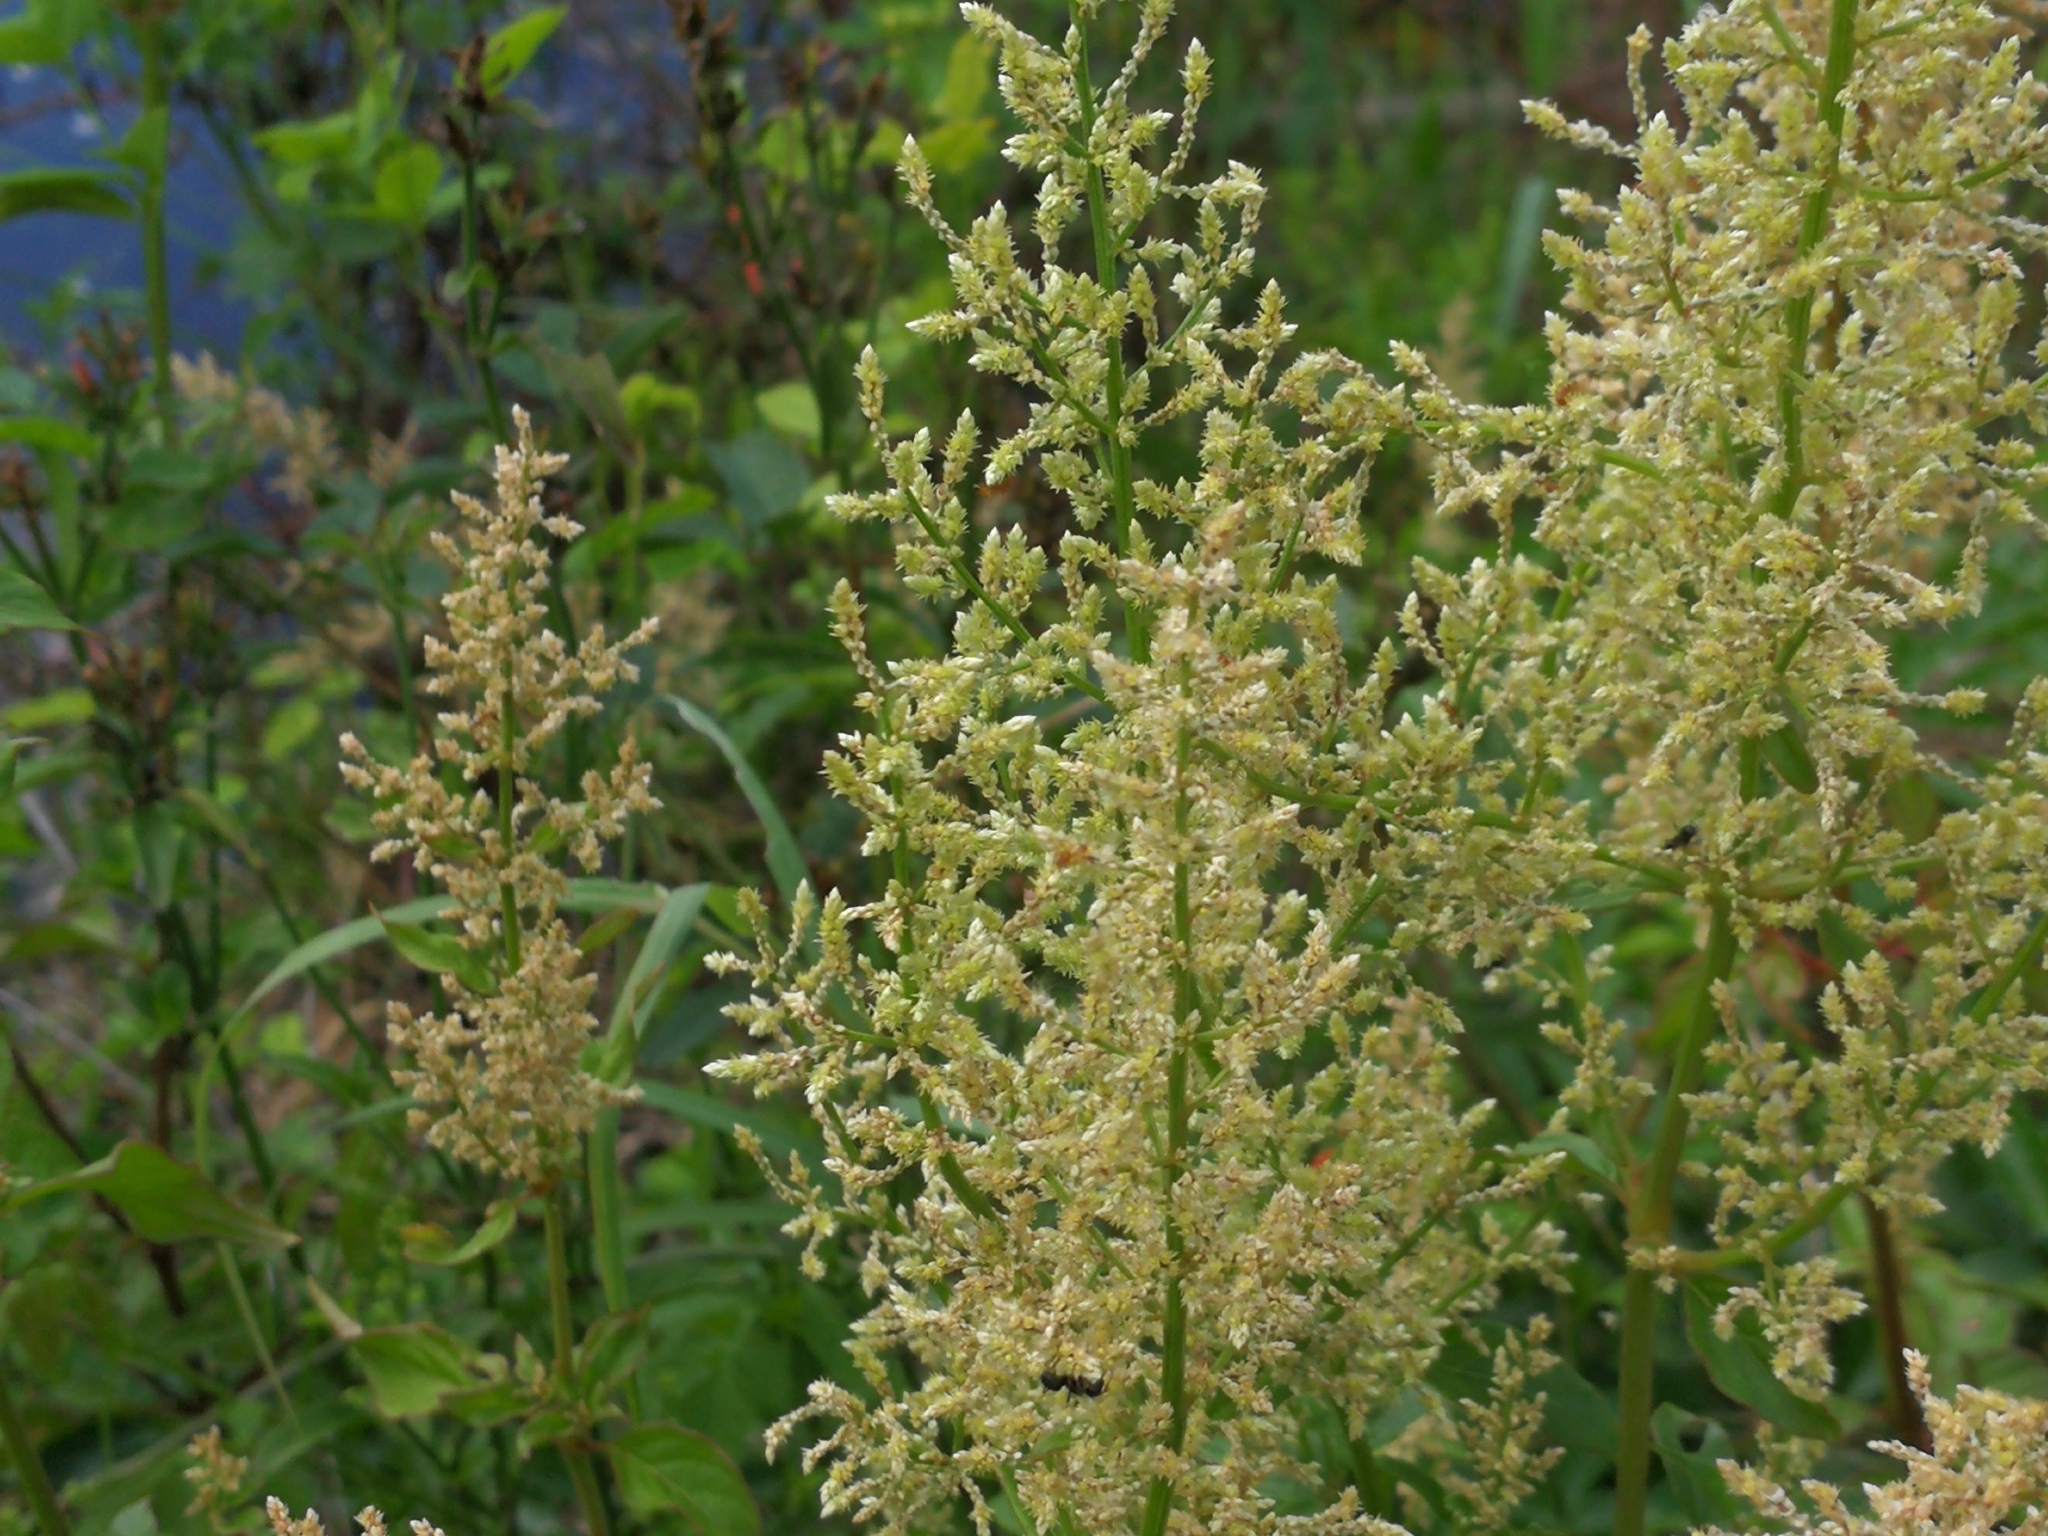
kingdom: Plantae
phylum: Tracheophyta
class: Magnoliopsida
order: Caryophyllales
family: Amaranthaceae
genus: Iresine
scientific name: Iresine diffusa
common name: Juba's-bush
